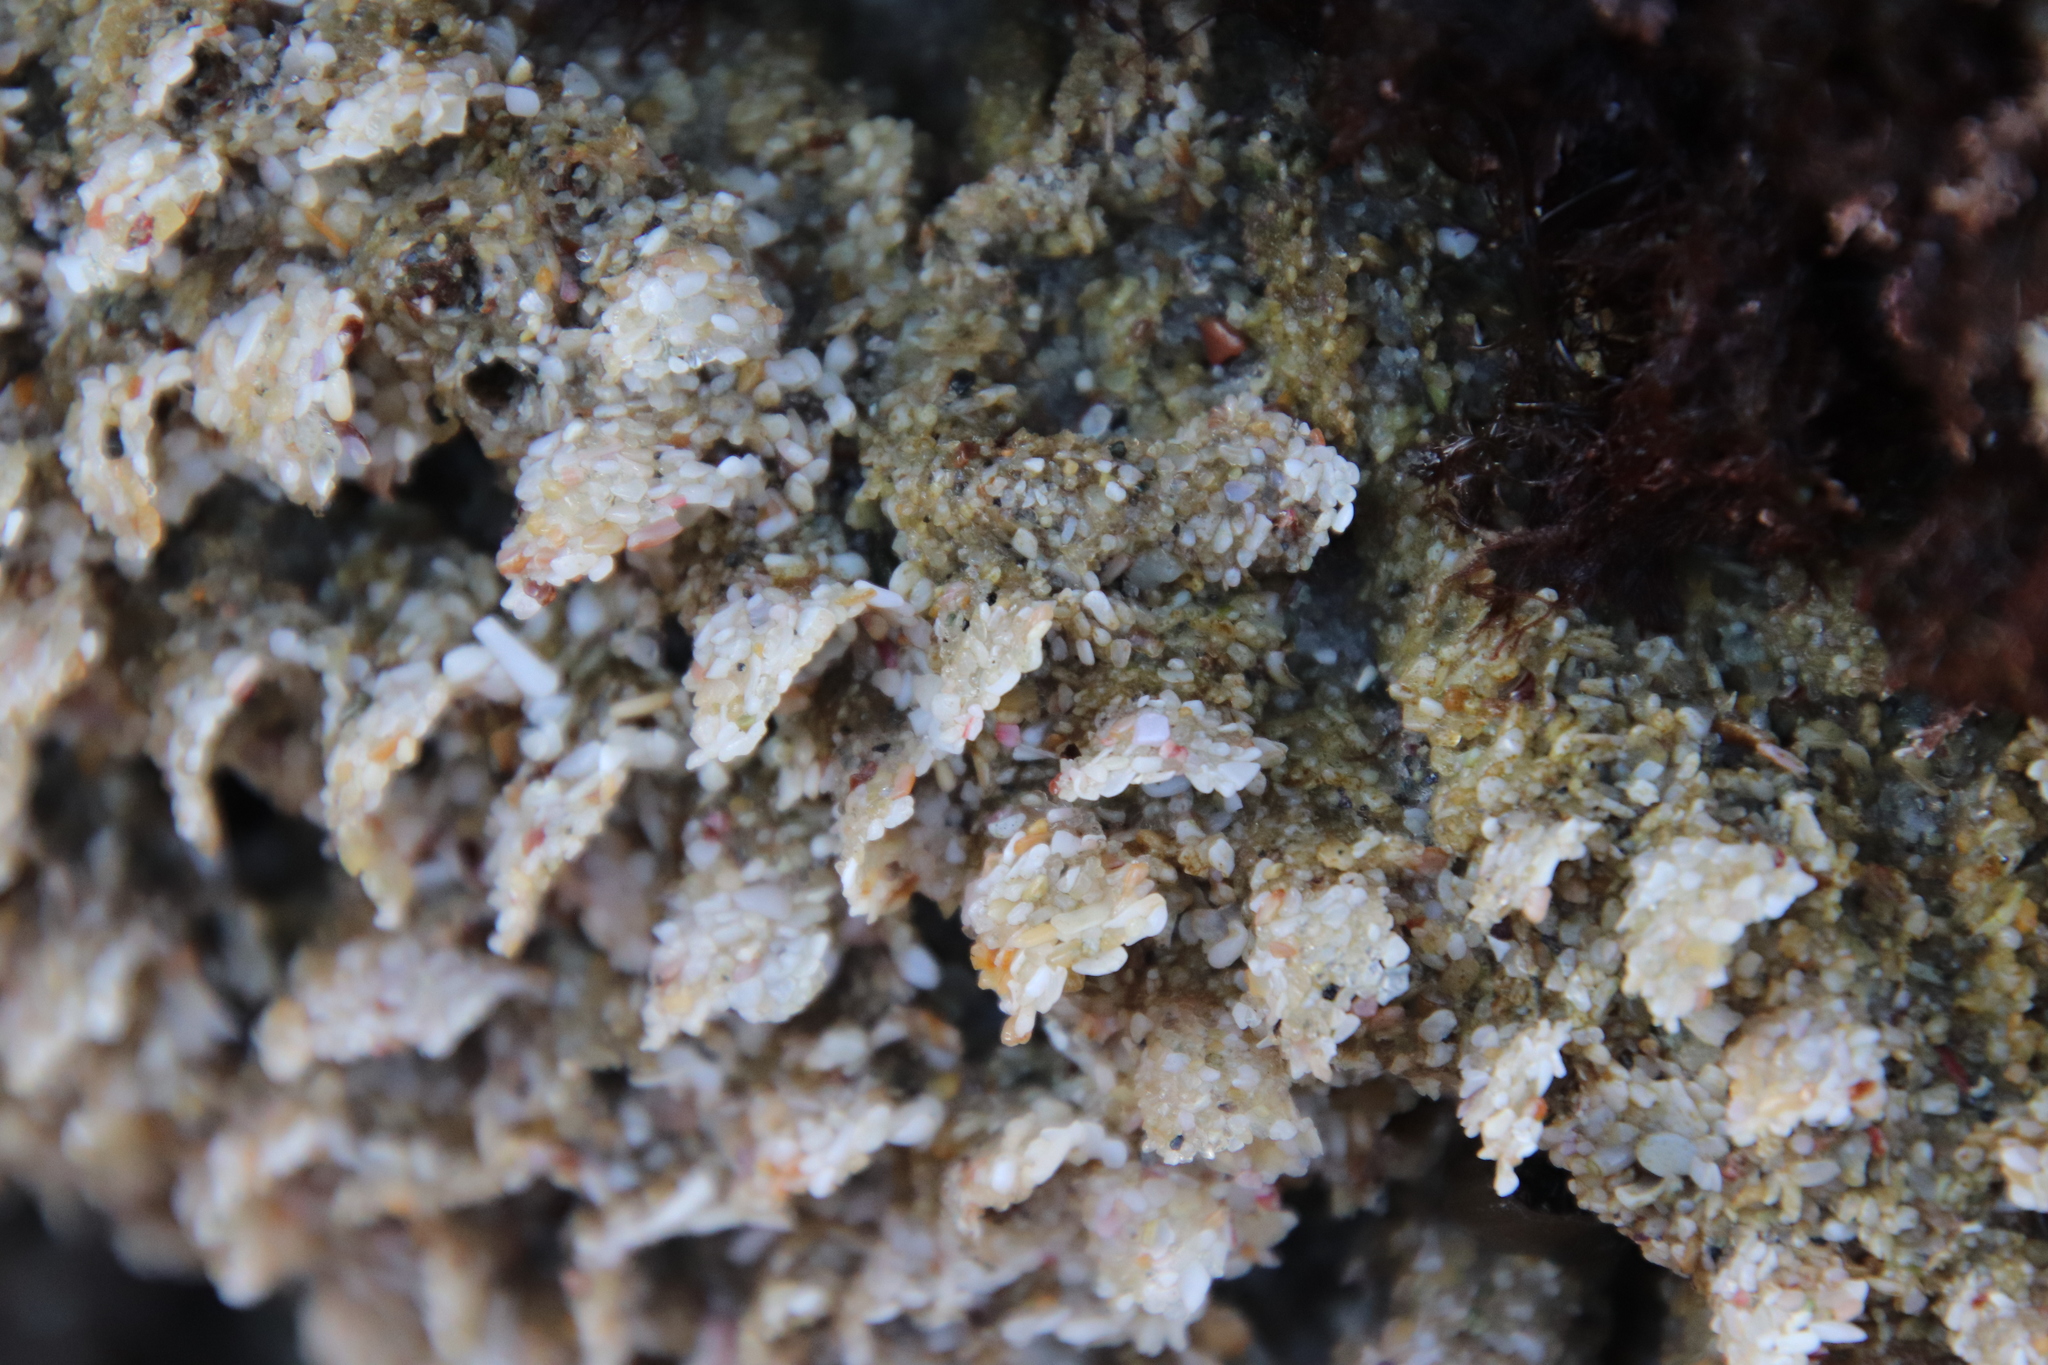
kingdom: Animalia
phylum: Annelida
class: Polychaeta
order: Sabellida
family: Sabellariidae
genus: Phragmatopoma
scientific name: Phragmatopoma californica
